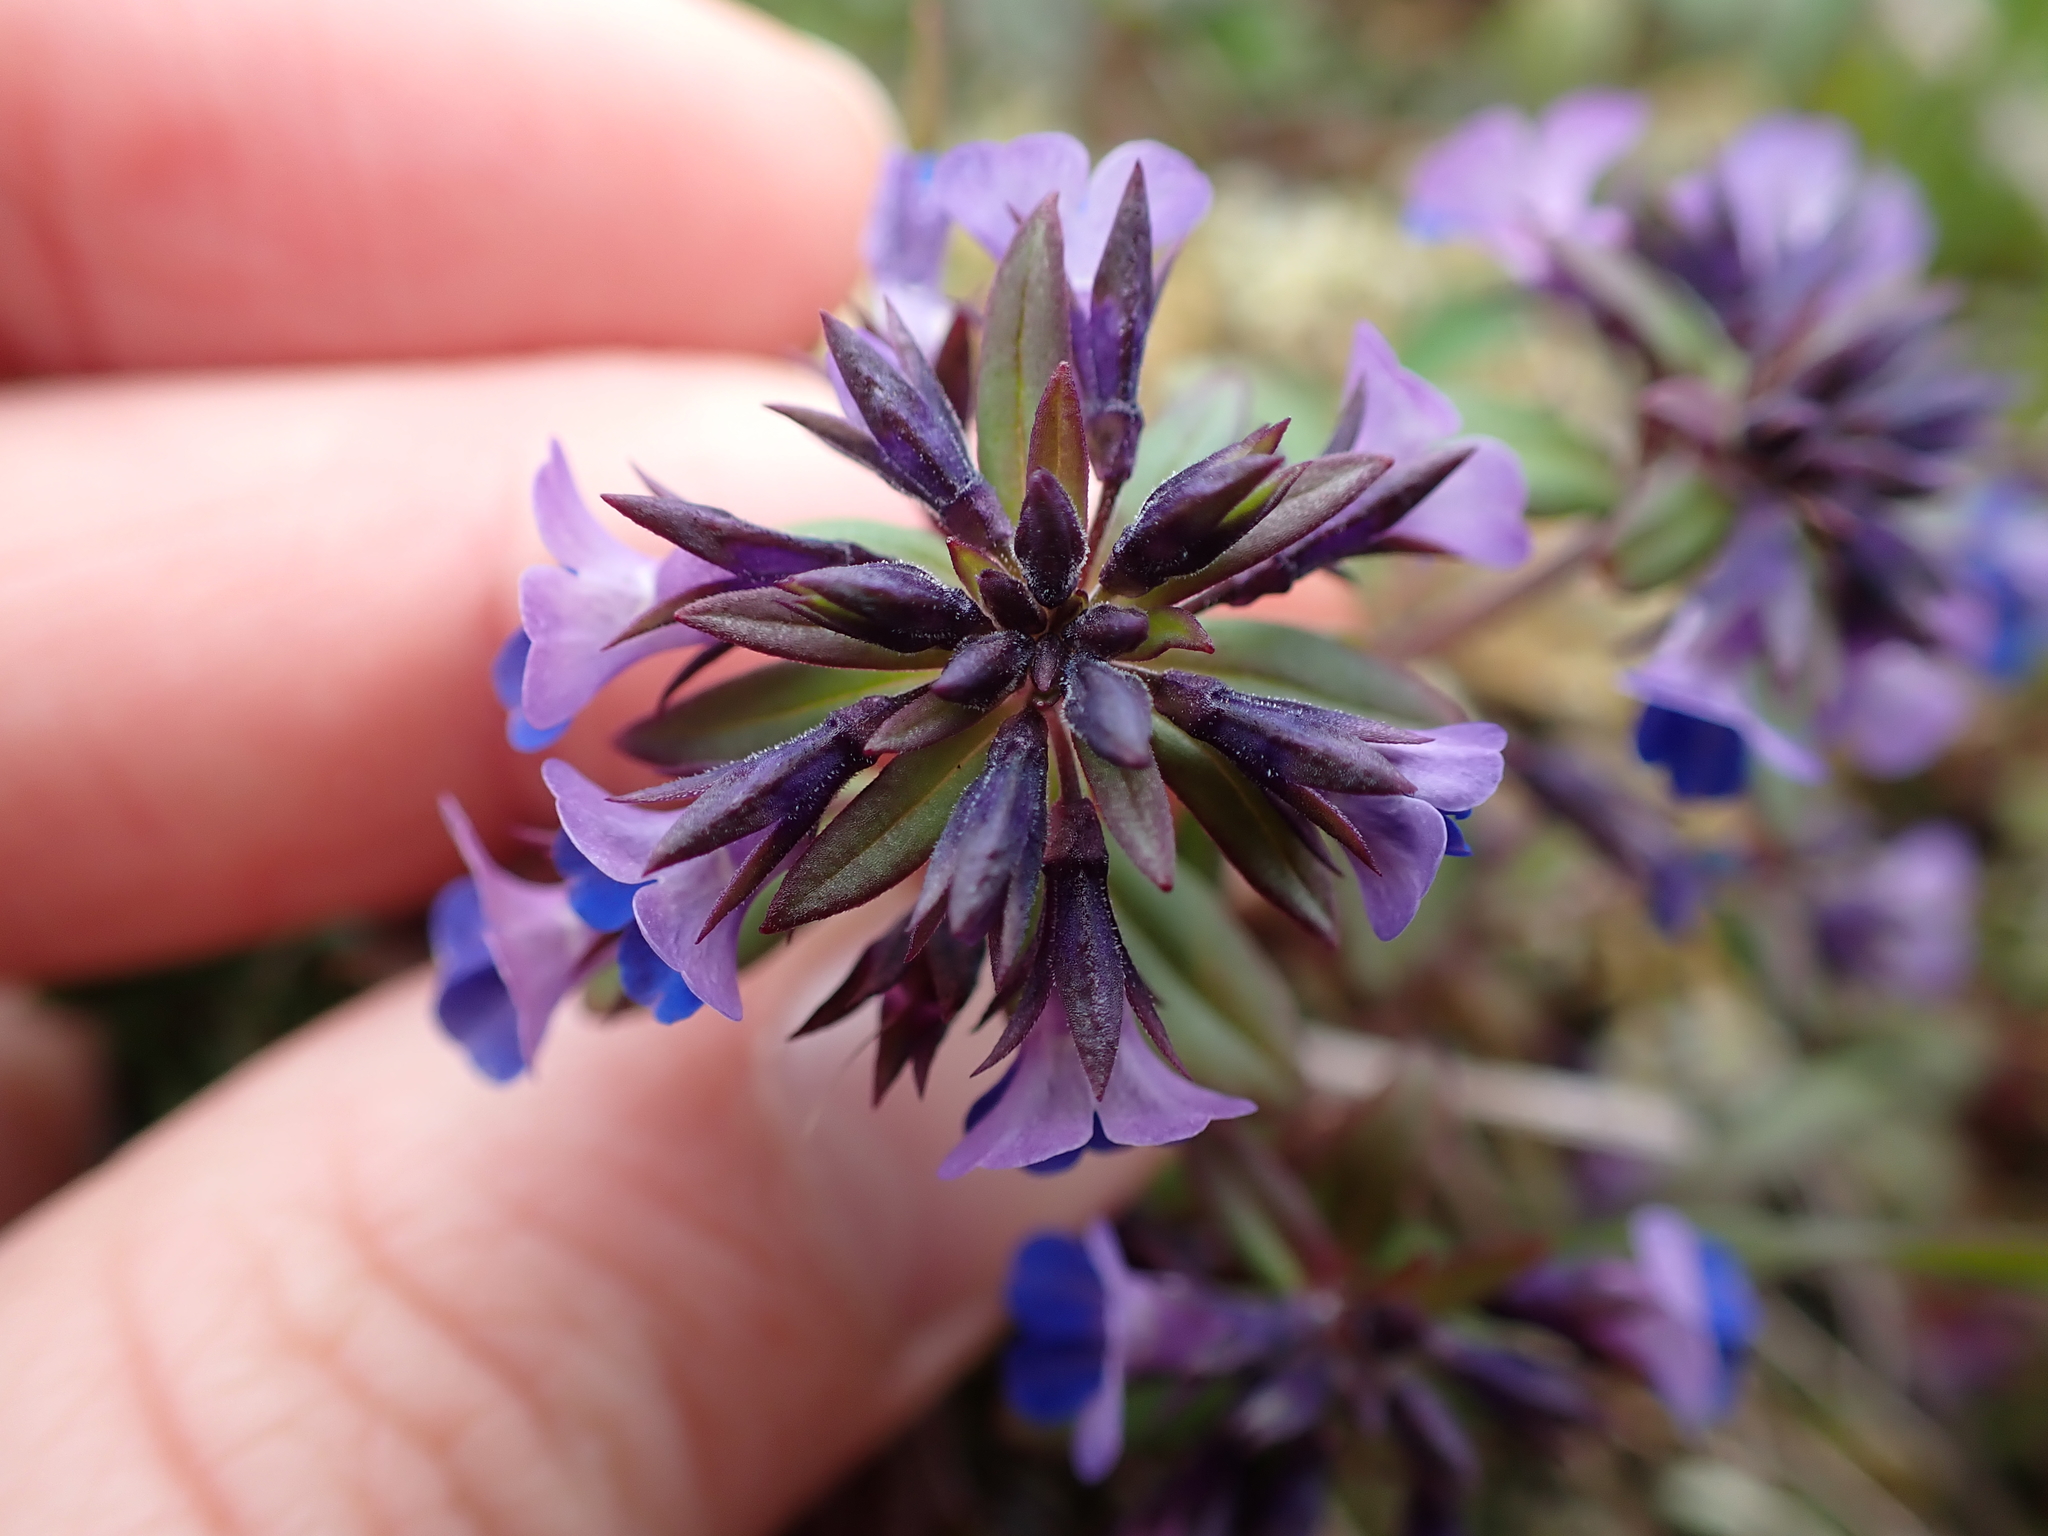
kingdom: Plantae
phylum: Tracheophyta
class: Magnoliopsida
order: Lamiales
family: Plantaginaceae
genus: Collinsia
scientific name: Collinsia parviflora
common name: Blue-lips
